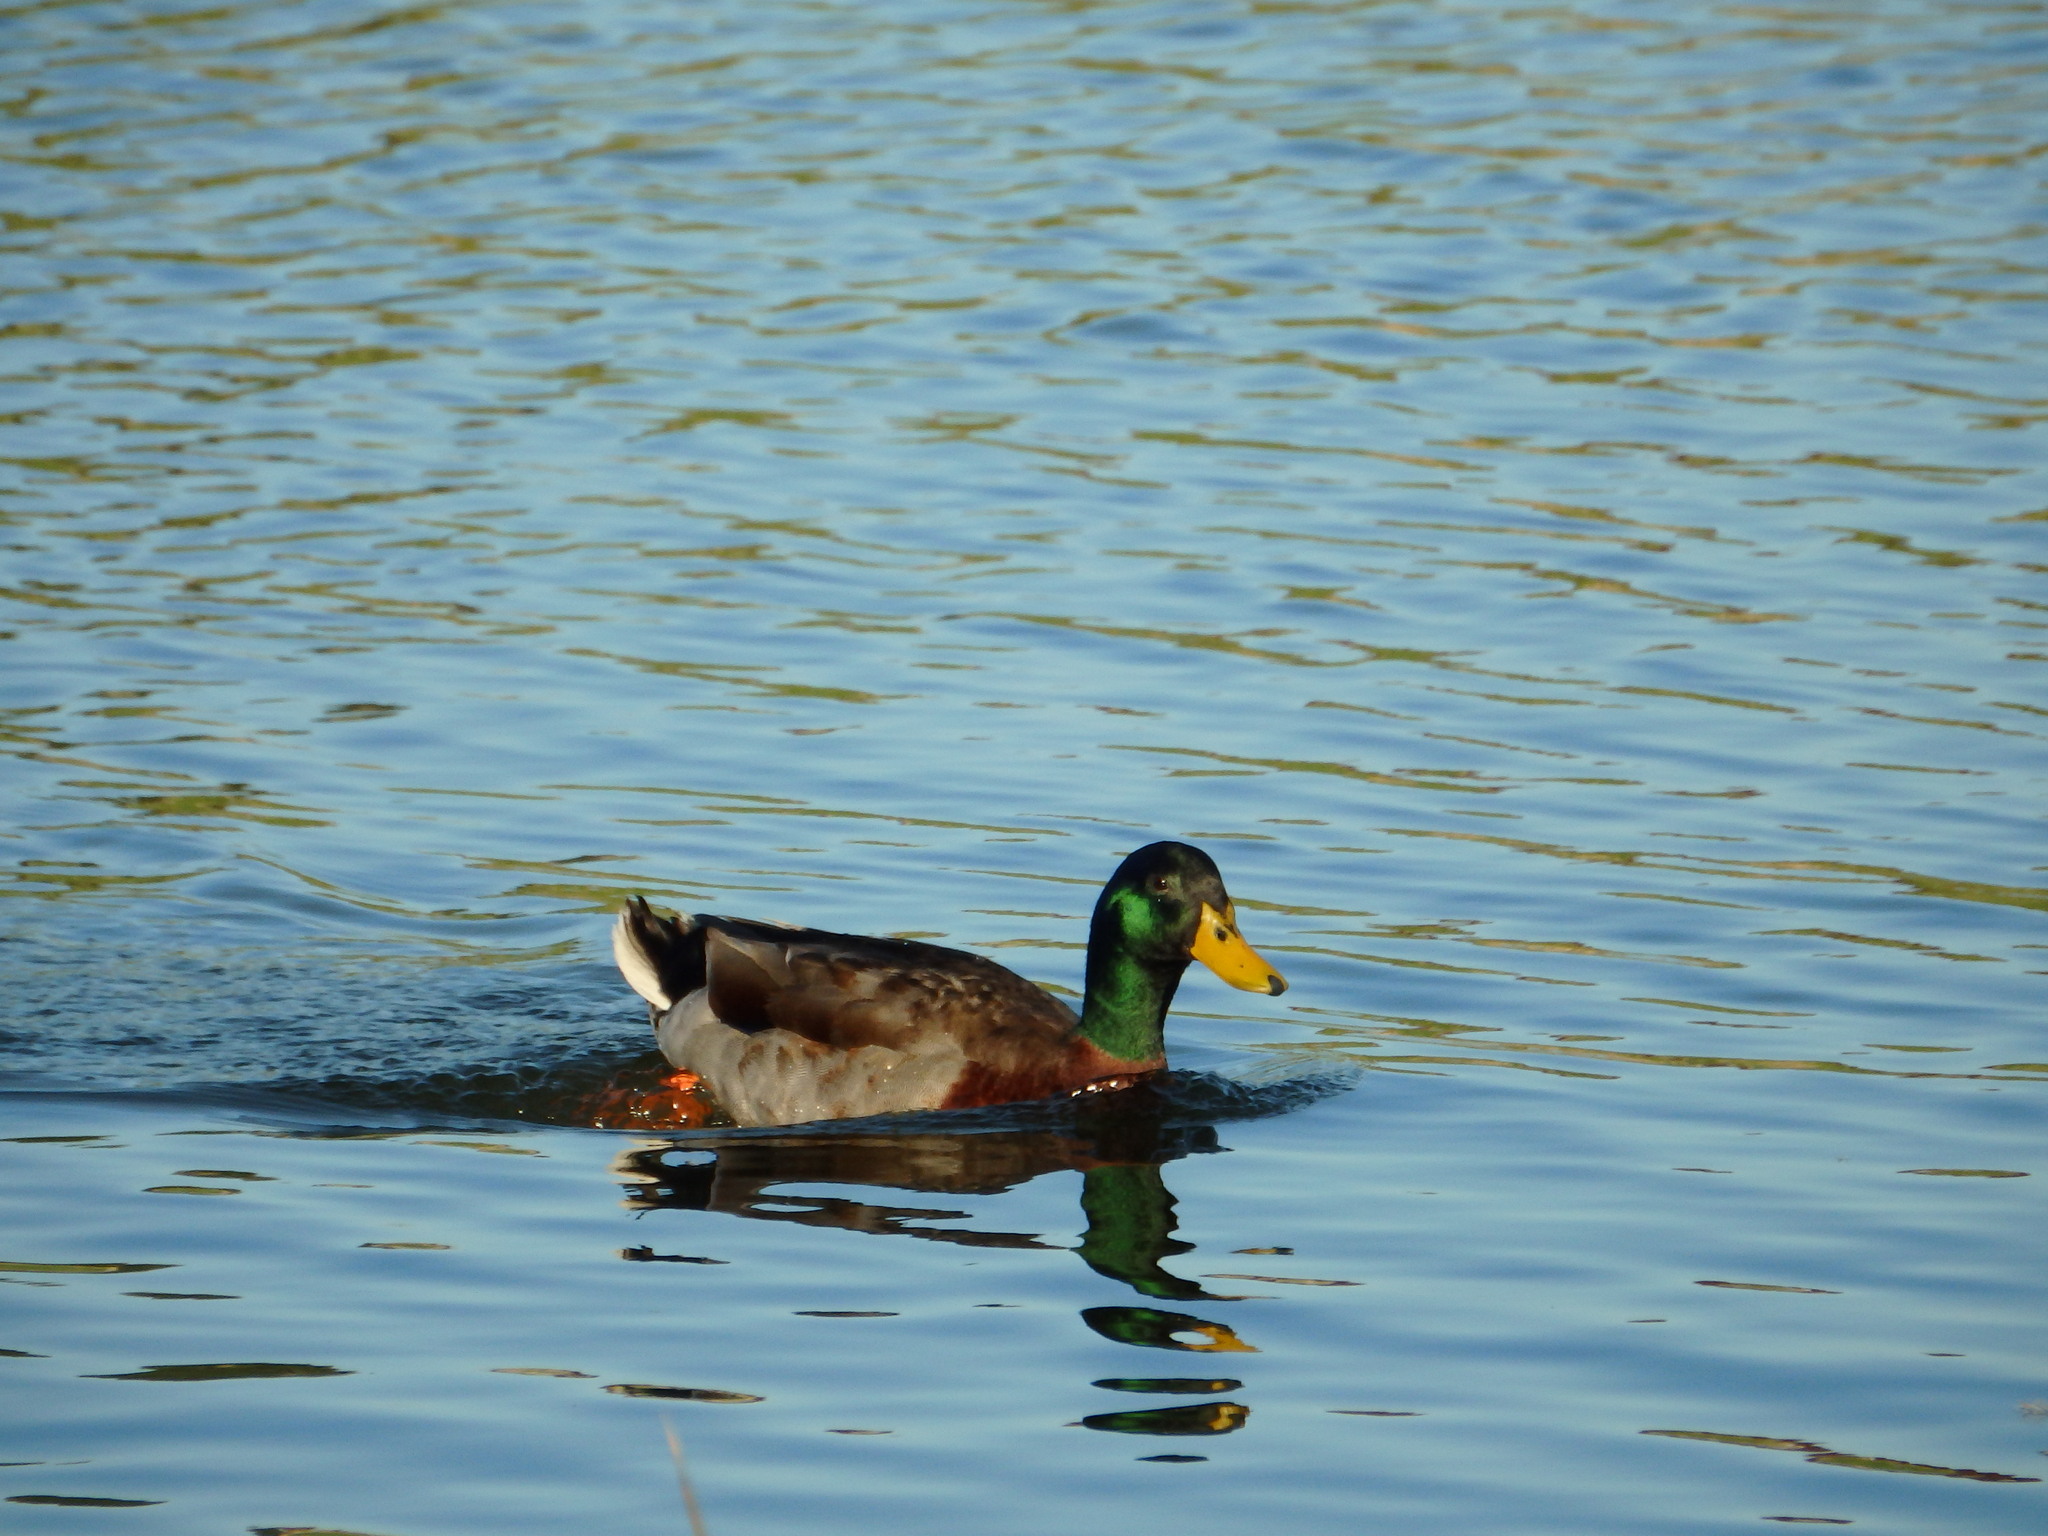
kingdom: Animalia
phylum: Chordata
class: Aves
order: Anseriformes
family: Anatidae
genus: Anas
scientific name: Anas platyrhynchos
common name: Mallard
